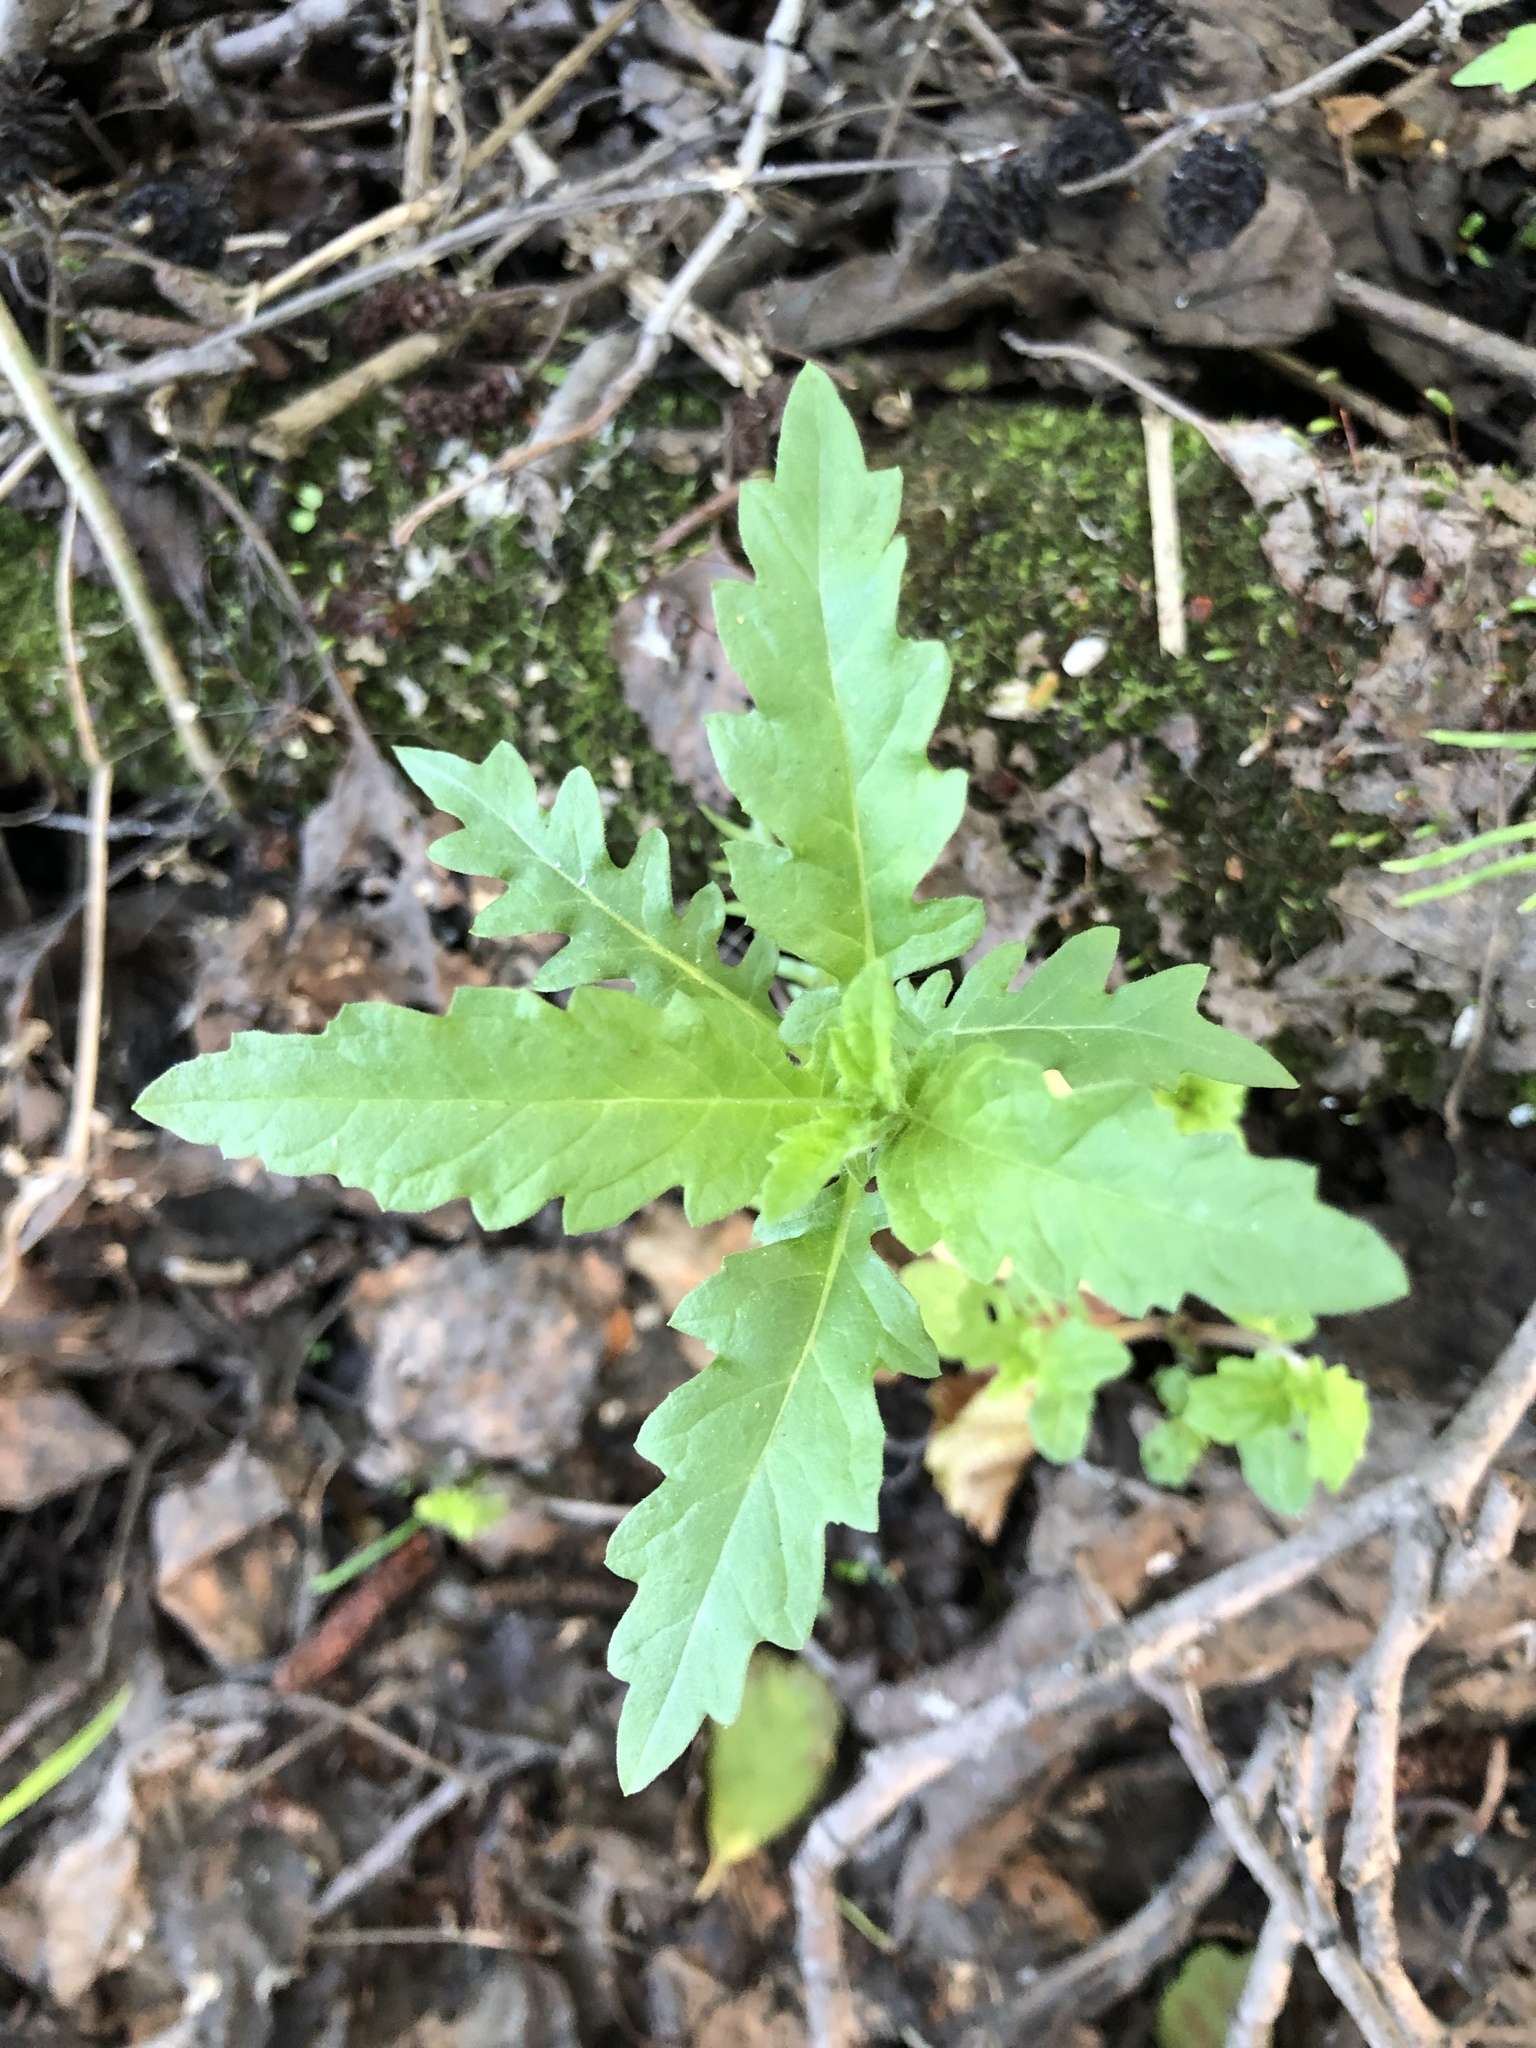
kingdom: Plantae
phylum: Tracheophyta
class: Magnoliopsida
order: Lamiales
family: Lamiaceae
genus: Lycopus
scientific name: Lycopus europaeus
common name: European bugleweed
